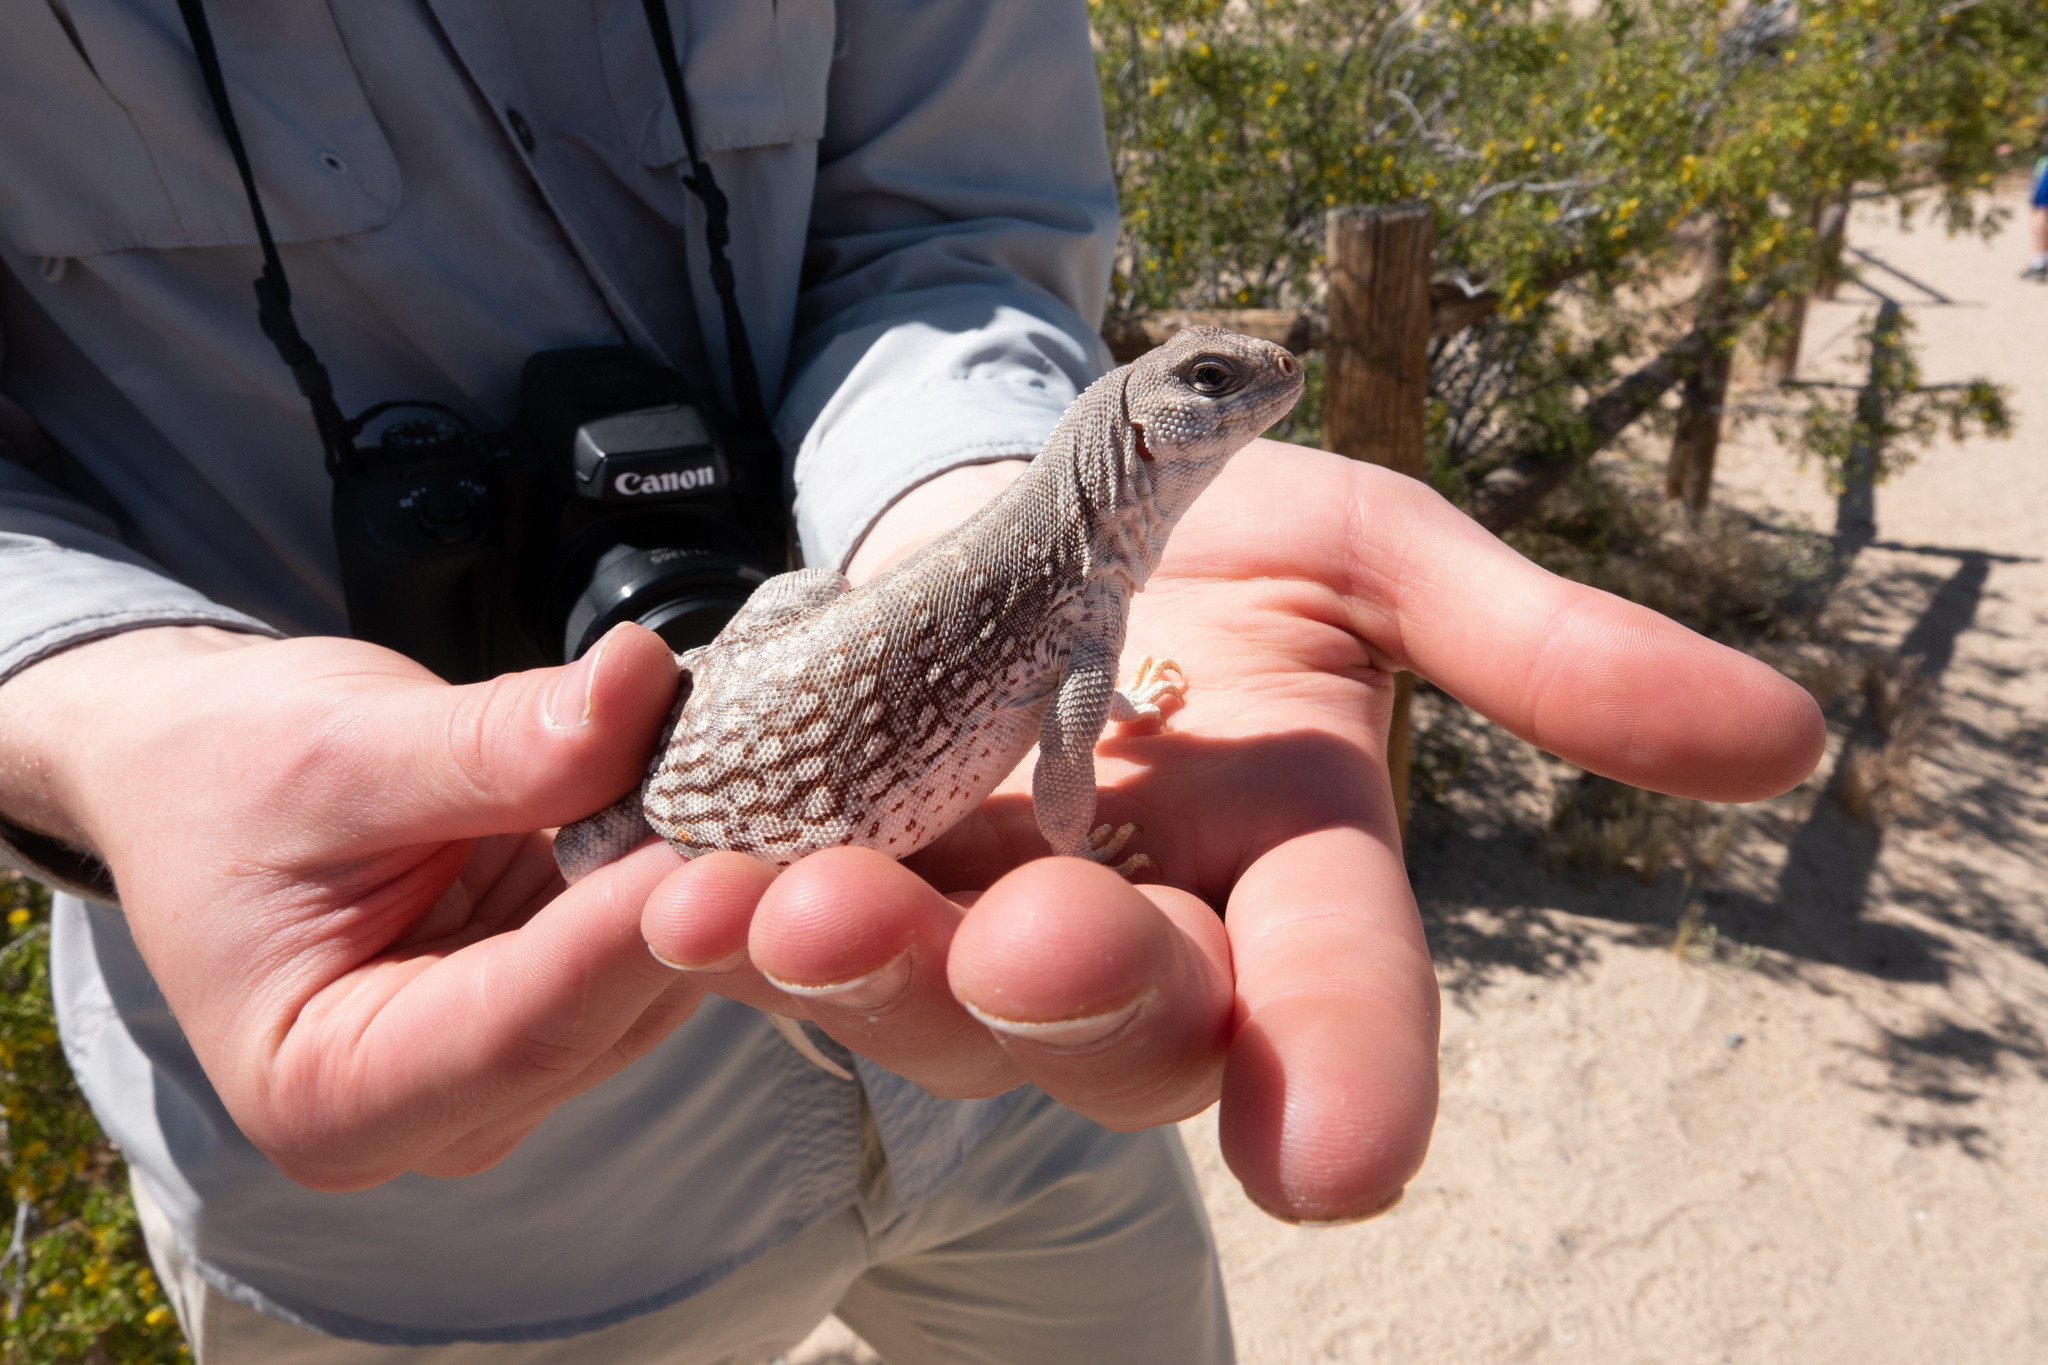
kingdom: Animalia
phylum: Chordata
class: Squamata
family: Iguanidae
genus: Dipsosaurus
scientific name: Dipsosaurus dorsalis
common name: Desert iguana
